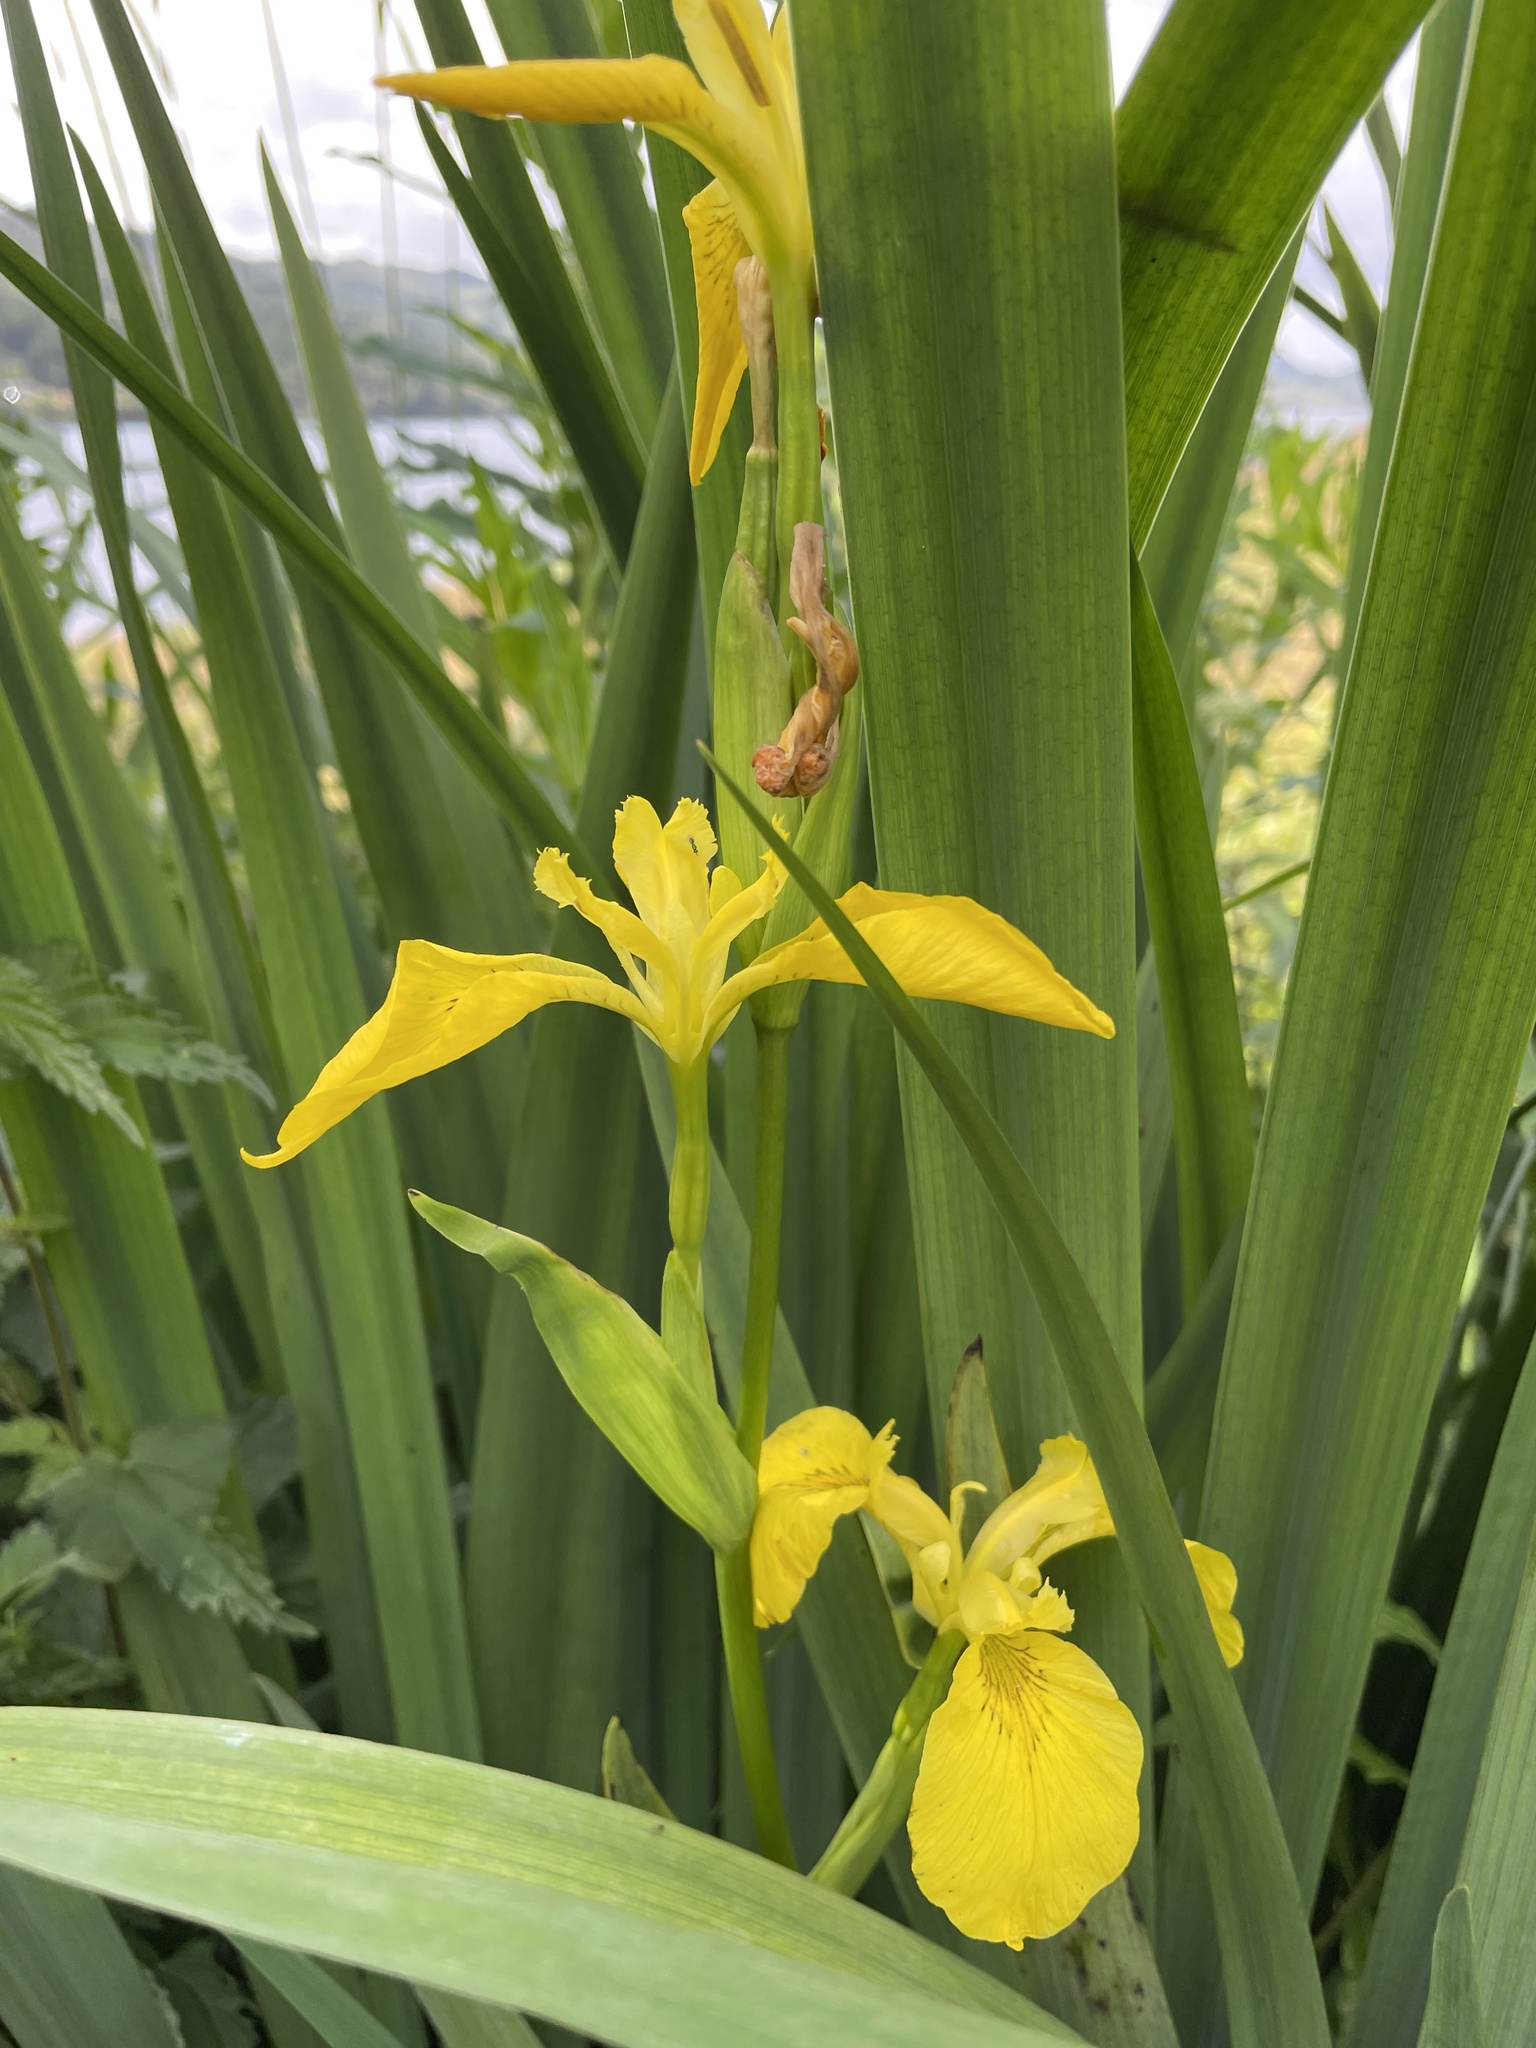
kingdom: Plantae
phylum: Tracheophyta
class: Liliopsida
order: Asparagales
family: Iridaceae
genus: Iris
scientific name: Iris pseudacorus
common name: Yellow flag
